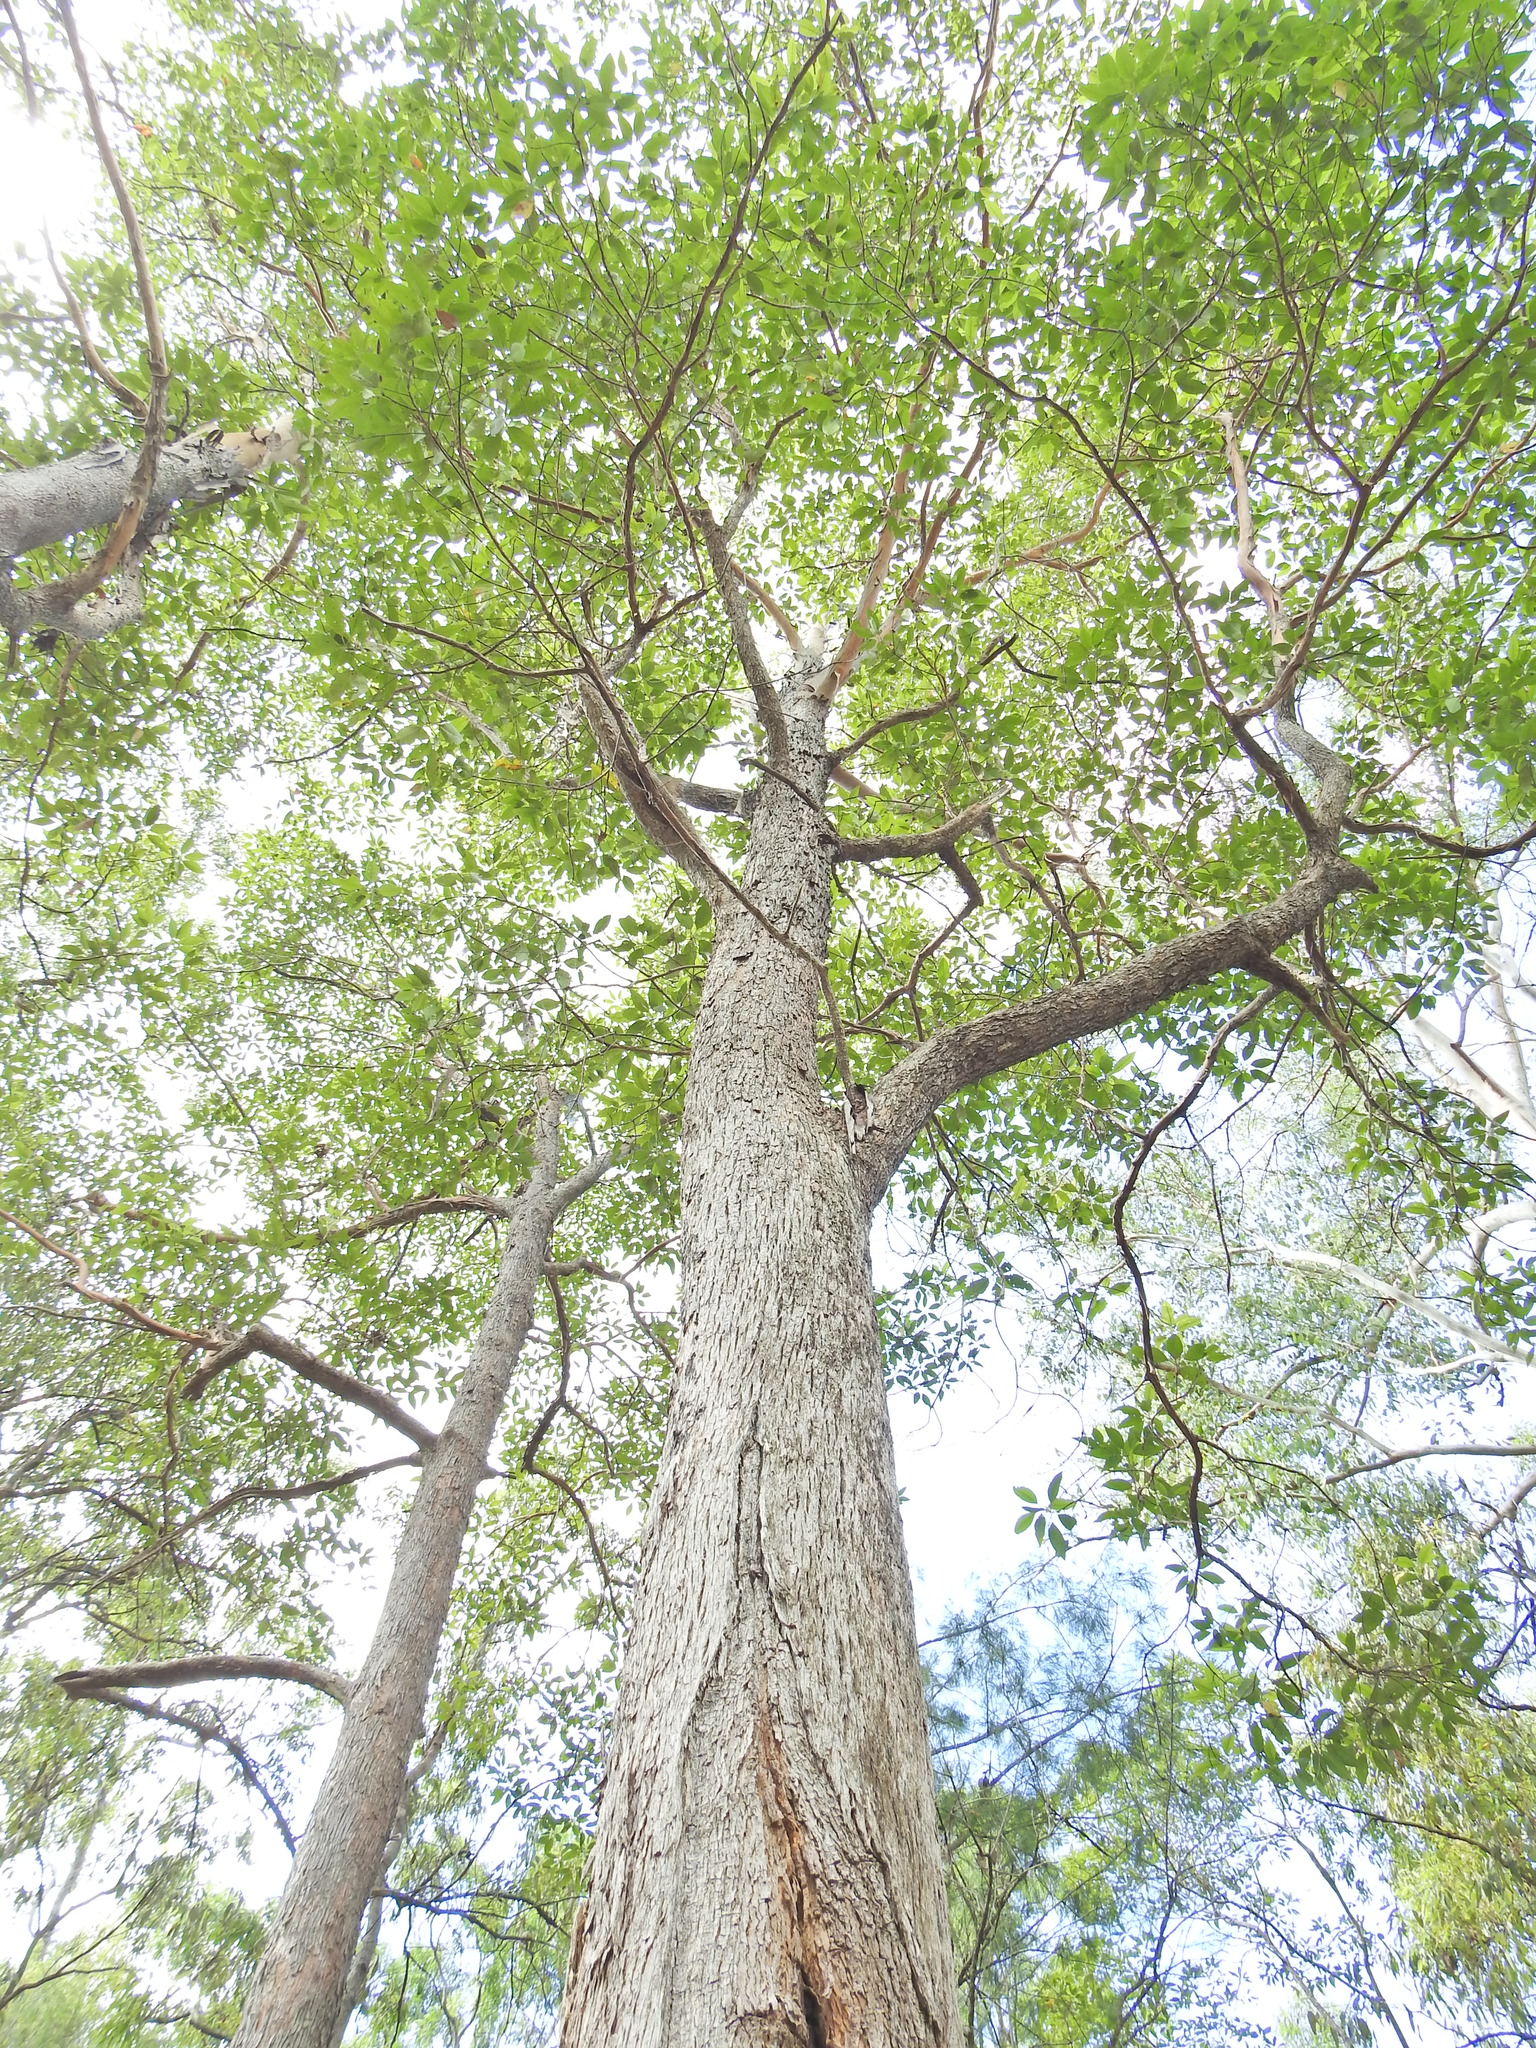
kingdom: Plantae
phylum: Tracheophyta
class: Magnoliopsida
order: Myrtales
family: Myrtaceae
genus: Lophostemon
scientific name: Lophostemon confertus
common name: Brisbane box
